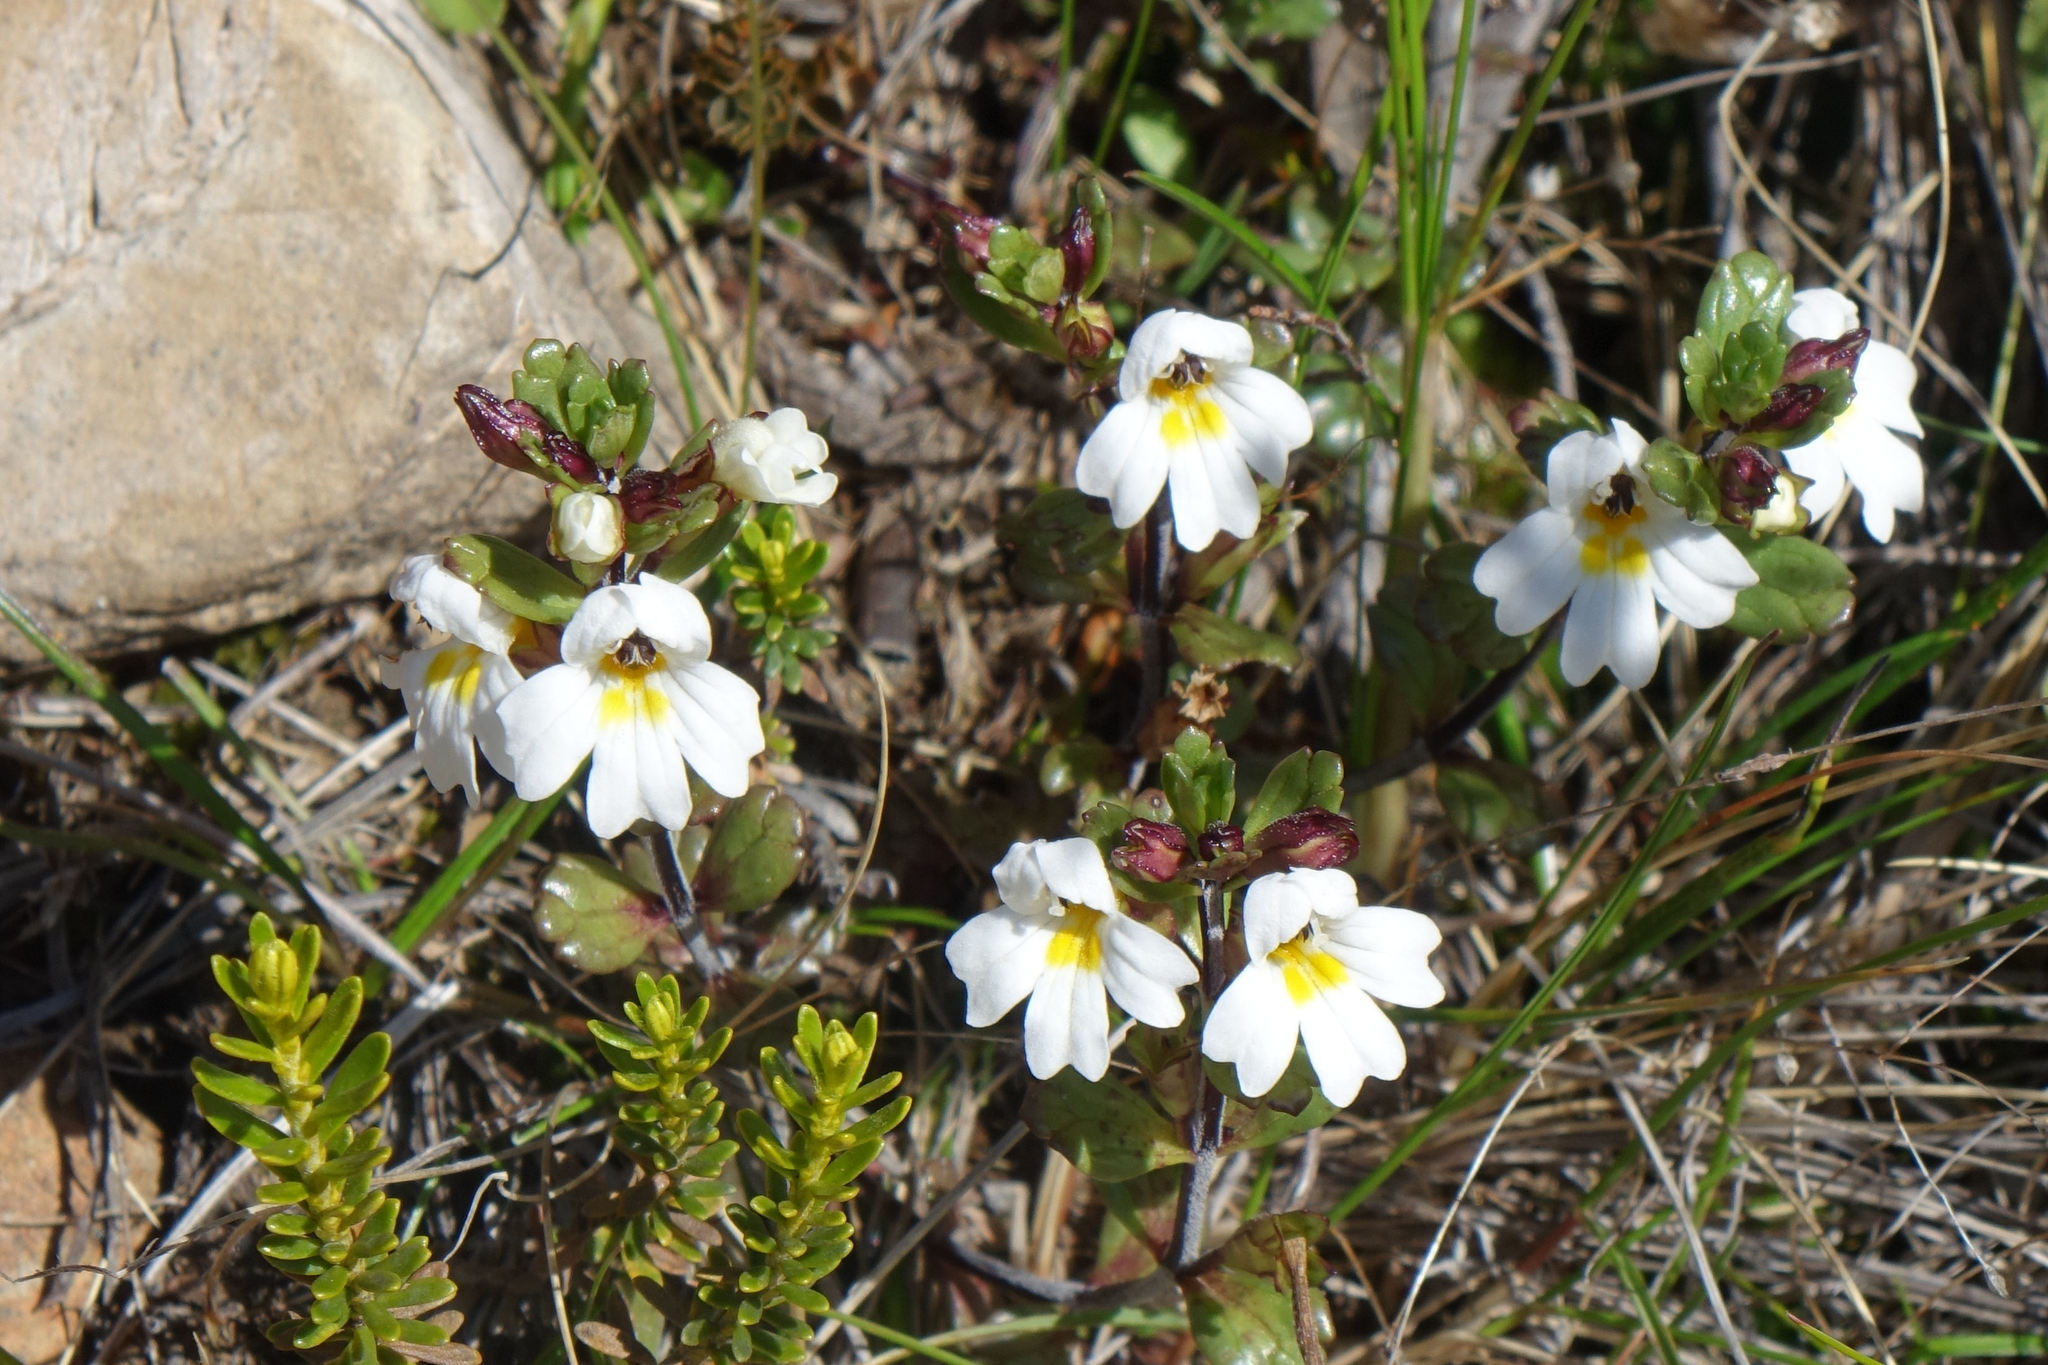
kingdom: Plantae
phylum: Tracheophyta
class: Magnoliopsida
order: Lamiales
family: Orobanchaceae
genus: Euphrasia
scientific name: Euphrasia laingii
